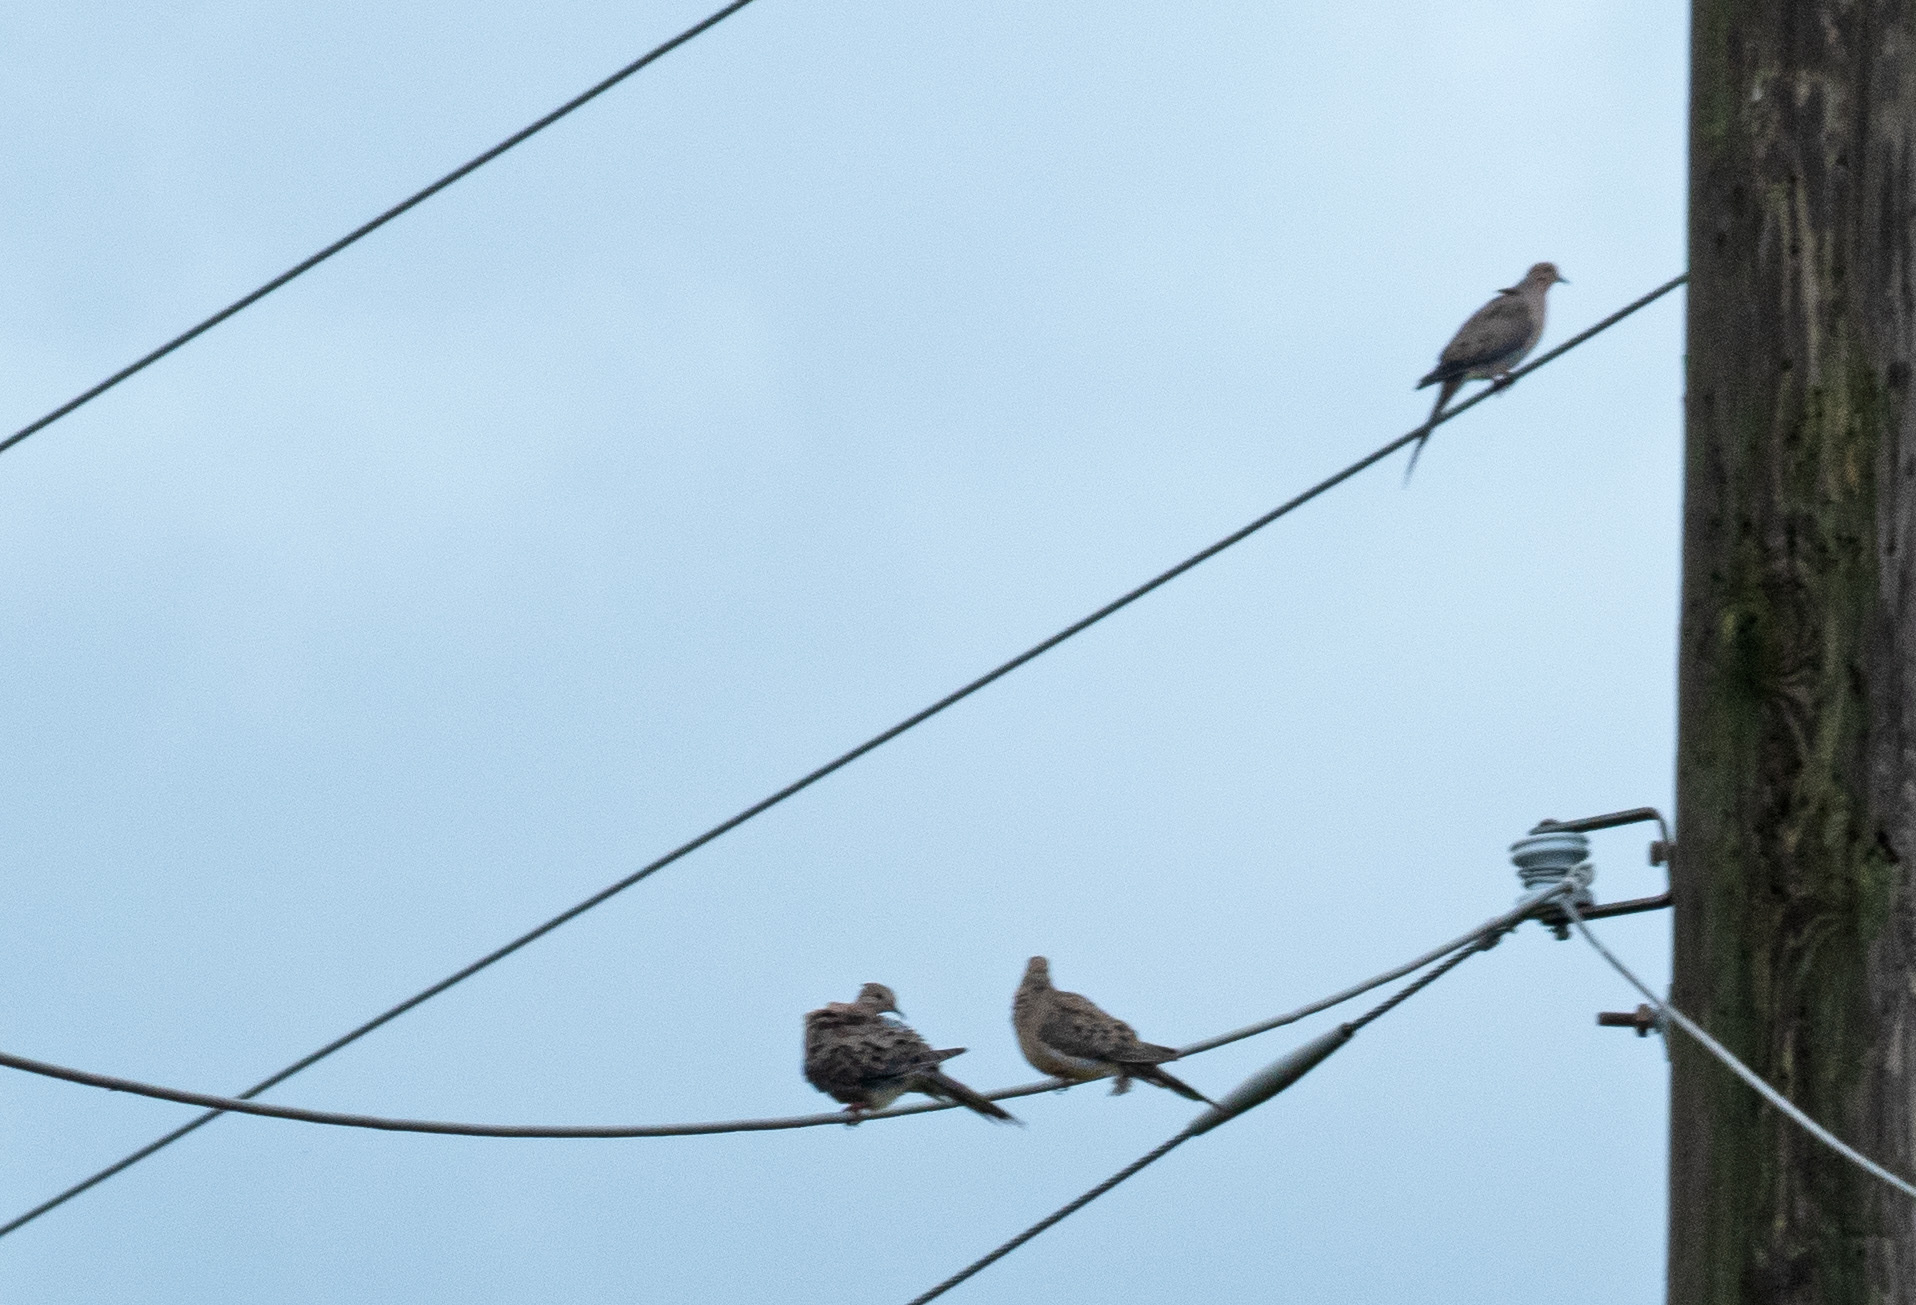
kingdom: Animalia
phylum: Chordata
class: Aves
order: Columbiformes
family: Columbidae
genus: Zenaida
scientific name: Zenaida macroura
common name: Mourning dove
